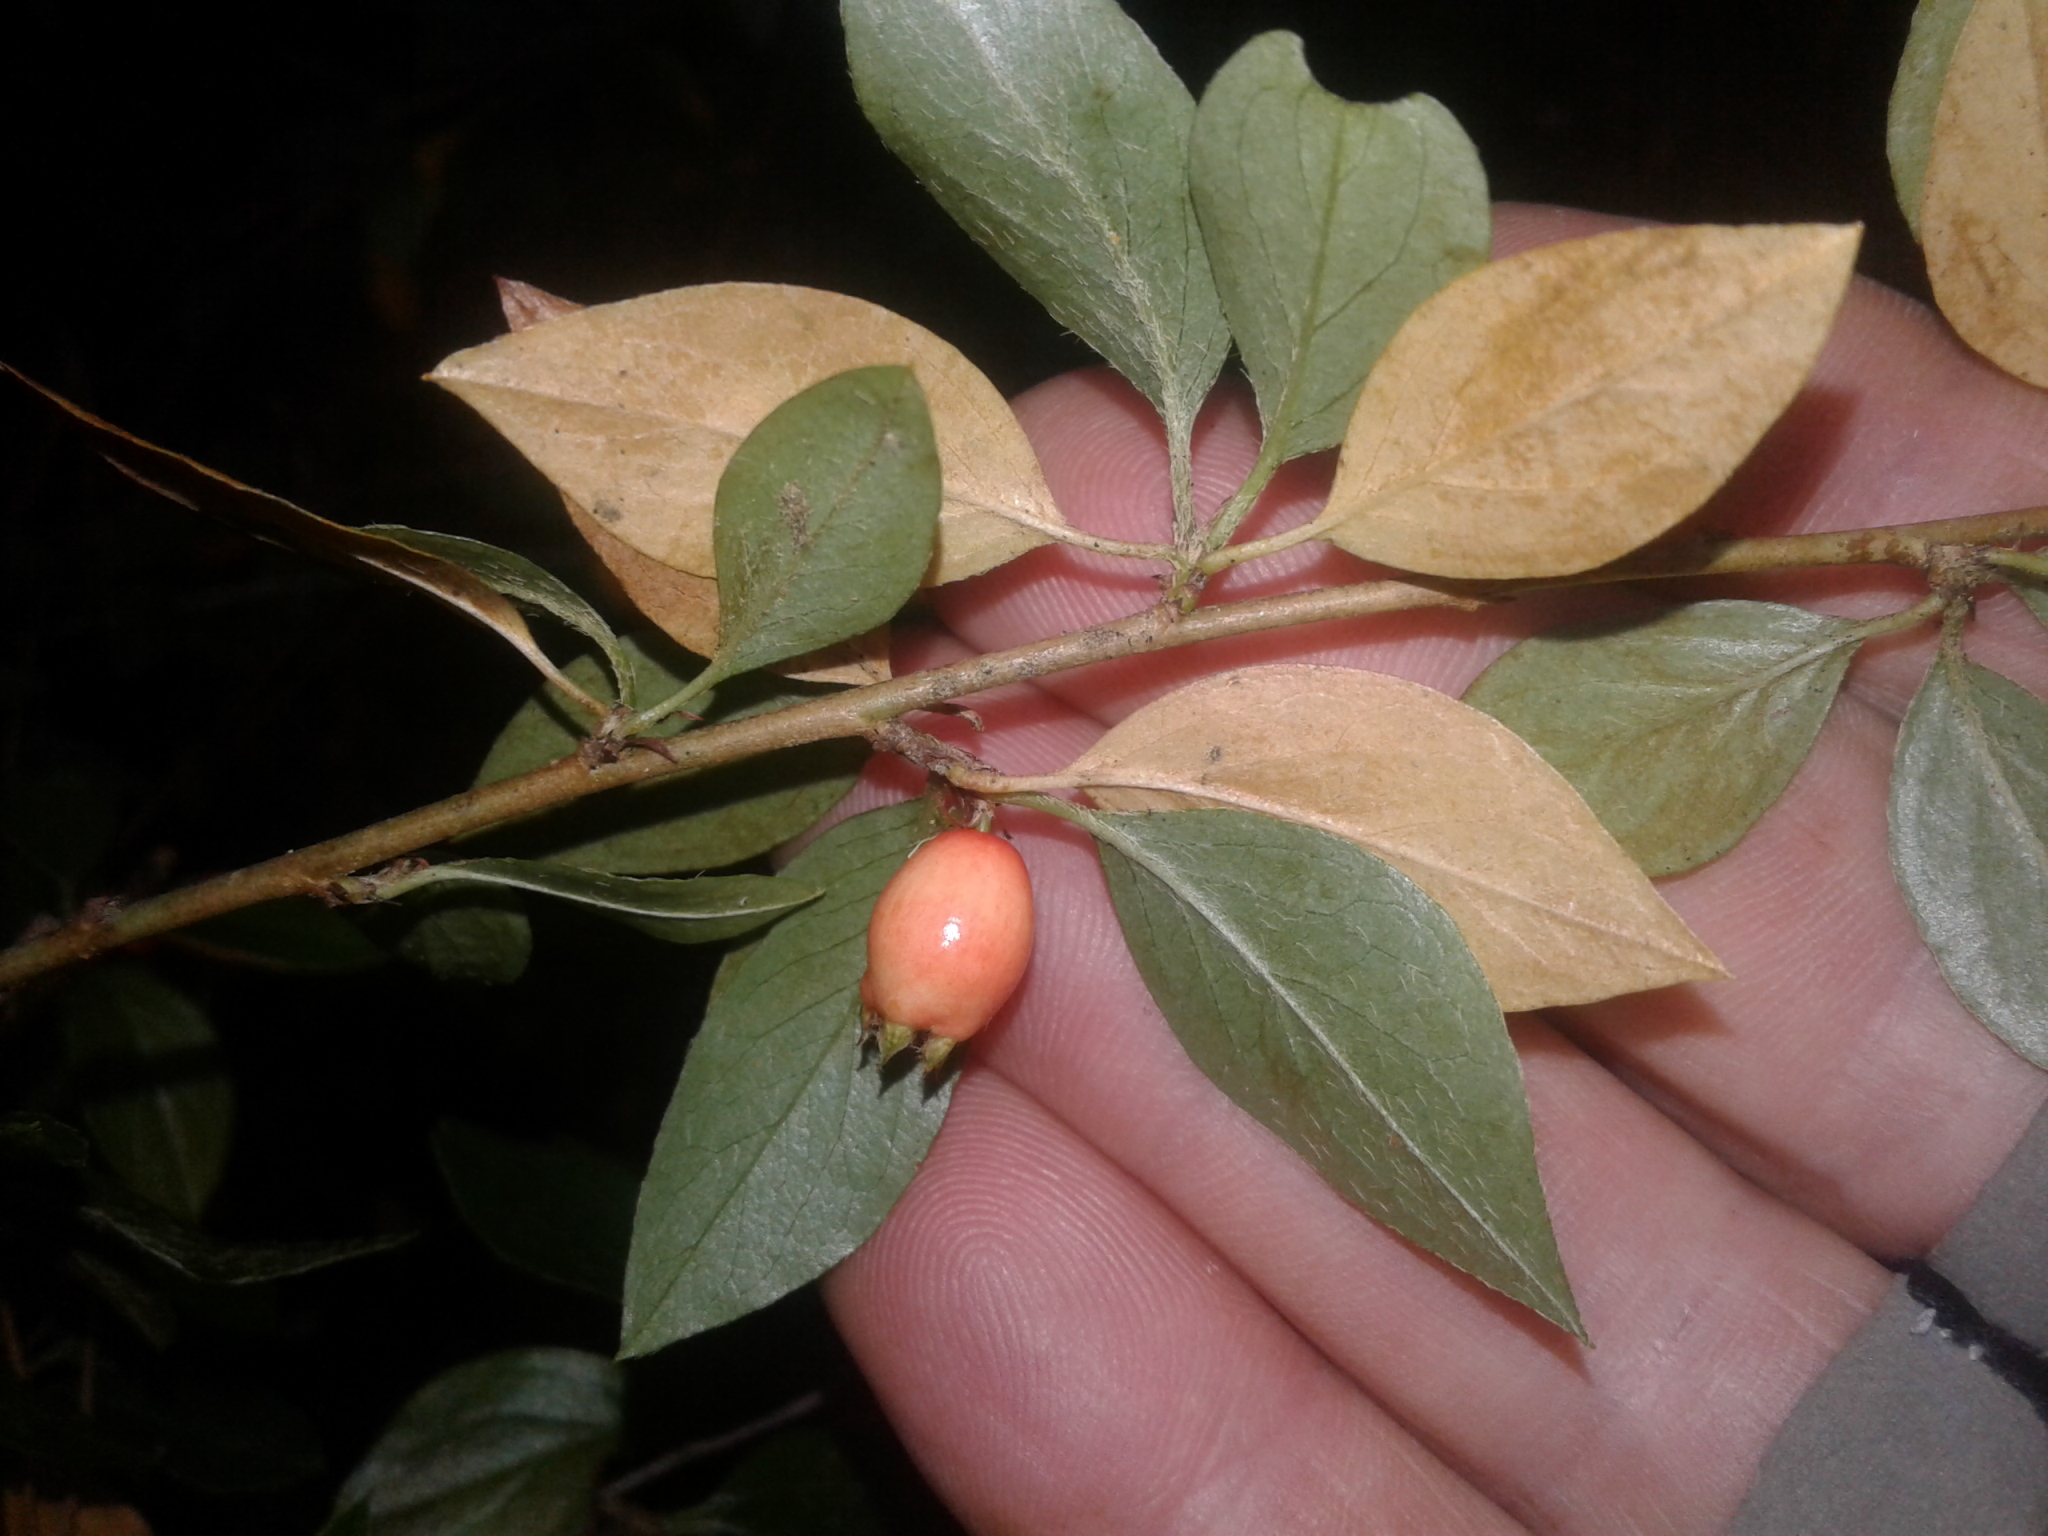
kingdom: Plantae
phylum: Tracheophyta
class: Magnoliopsida
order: Rosales
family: Rosaceae
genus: Cotoneaster
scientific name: Cotoneaster simonsii
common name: Himalayan cotoneaster
